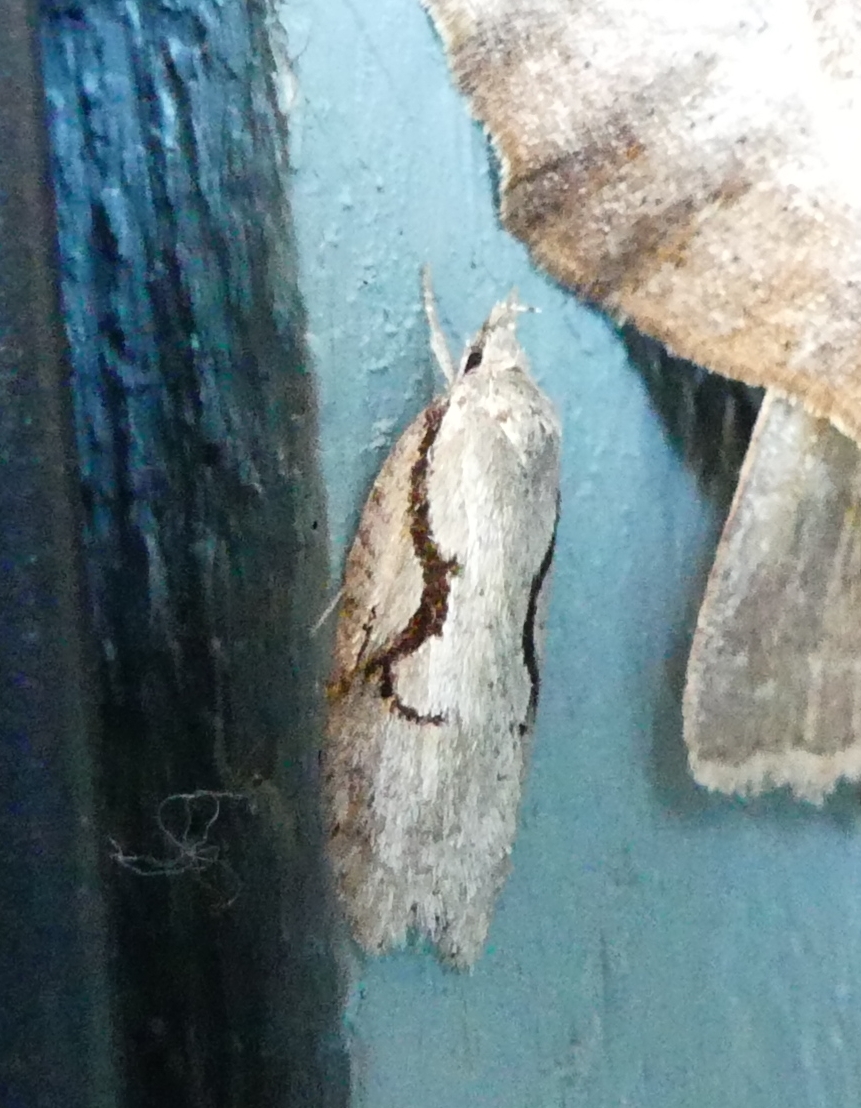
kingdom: Animalia
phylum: Arthropoda
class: Insecta
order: Lepidoptera
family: Depressariidae
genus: Semioscopis
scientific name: Semioscopis packardella
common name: Packard's concealer moth
